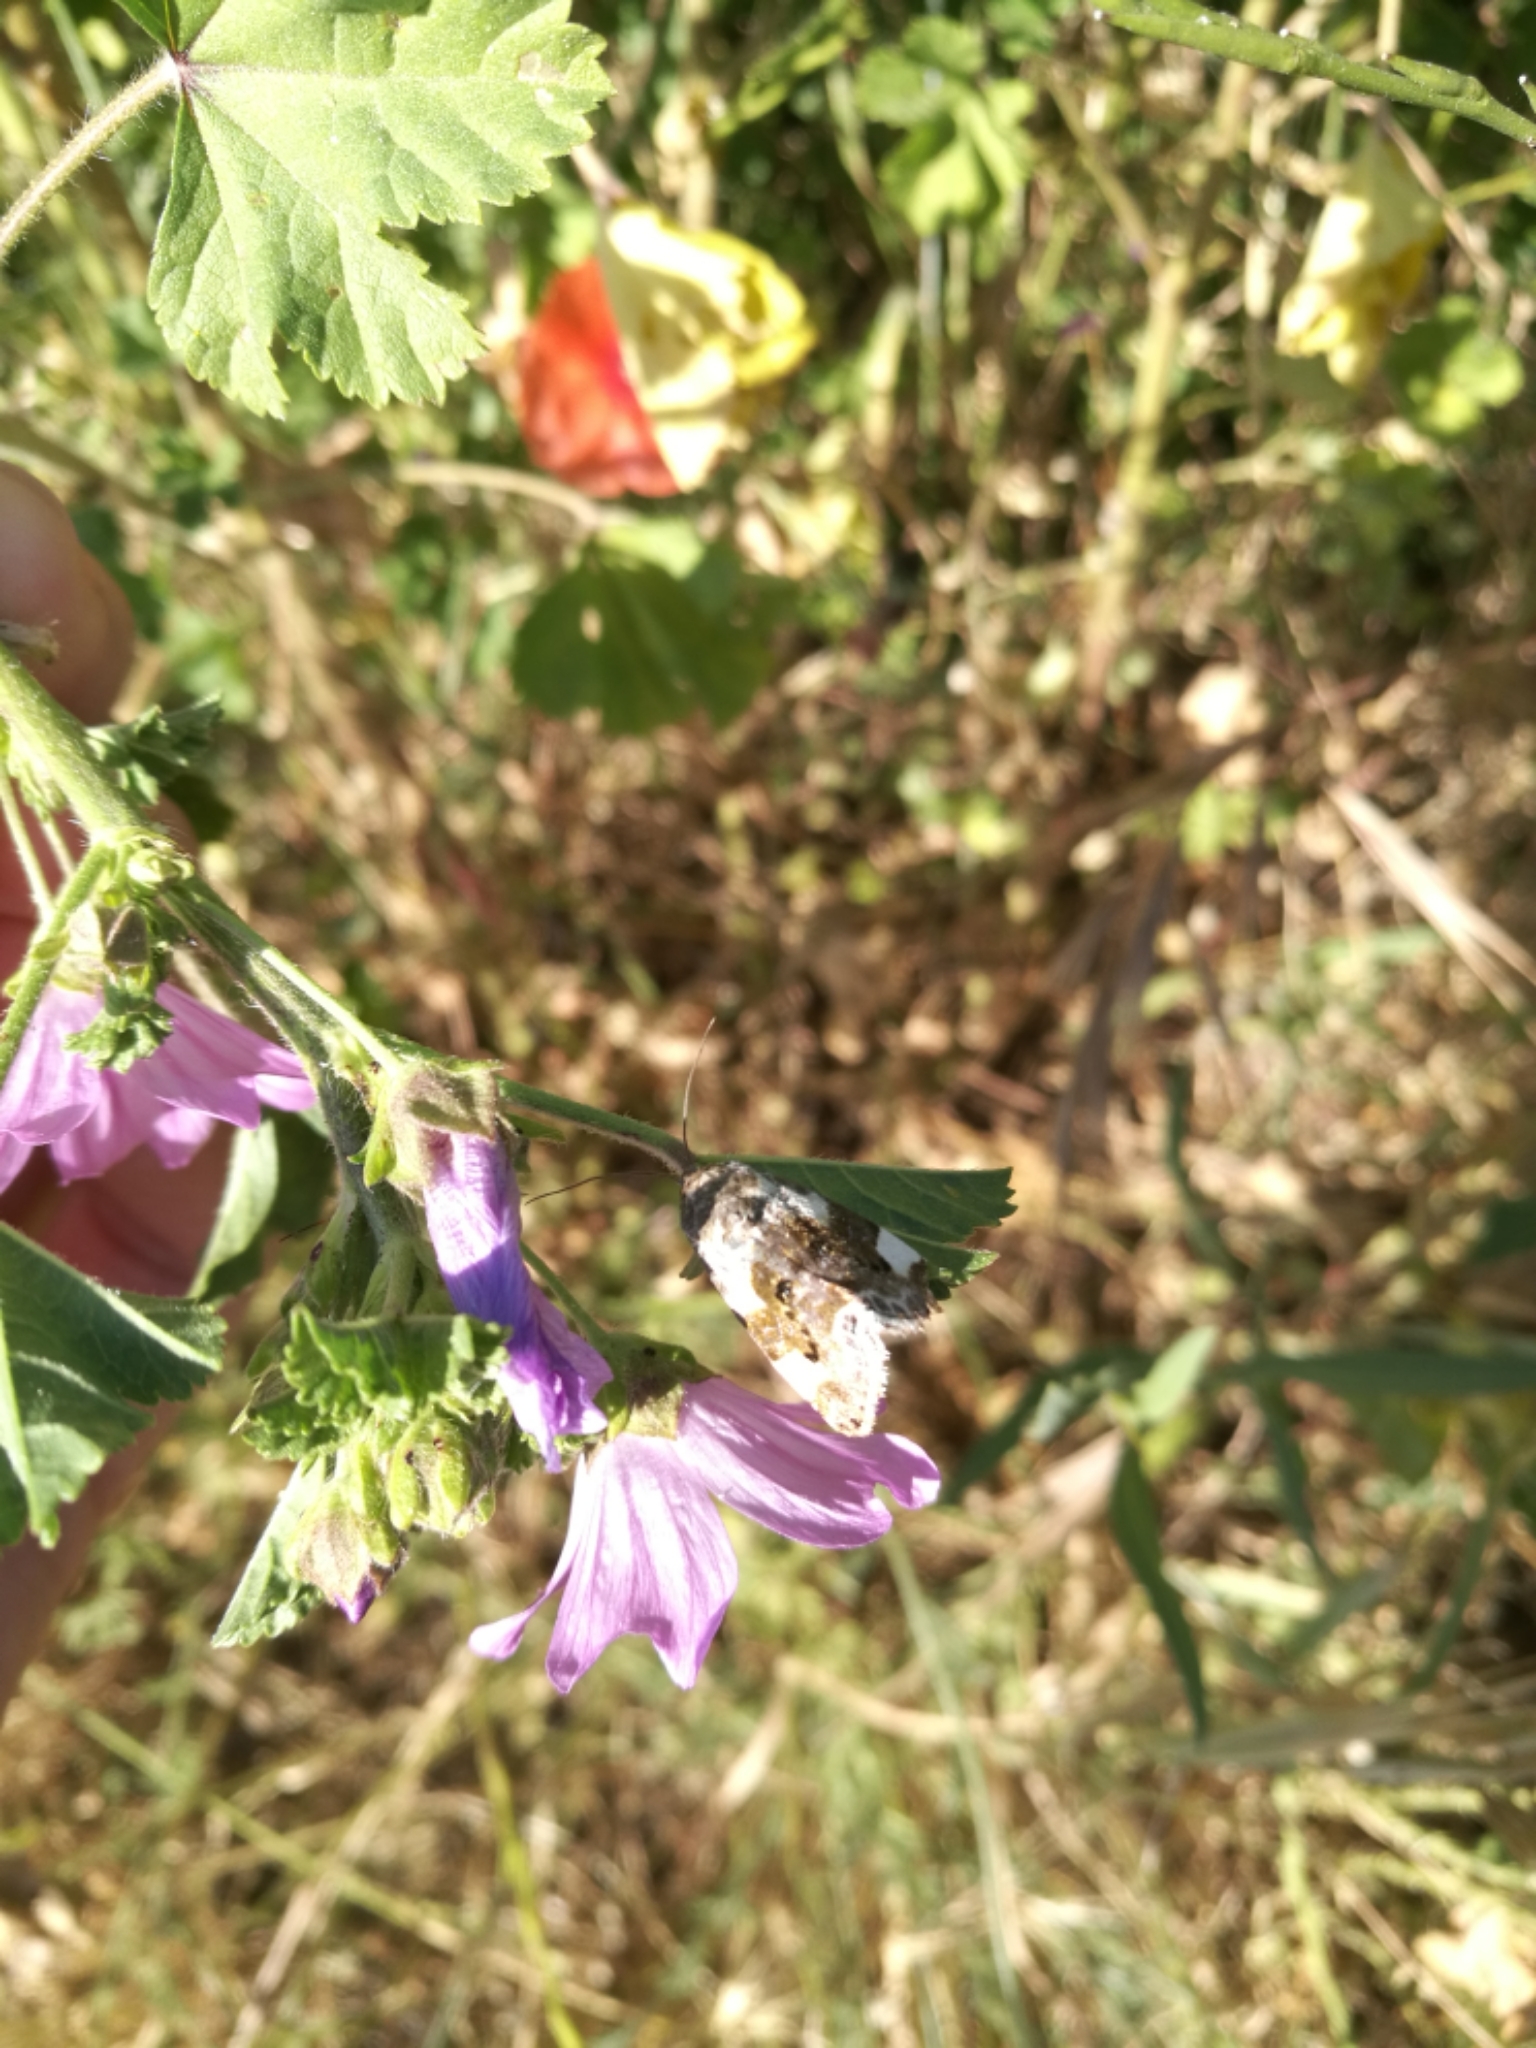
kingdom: Animalia
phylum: Arthropoda
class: Insecta
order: Lepidoptera
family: Noctuidae
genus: Acontia
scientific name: Acontia lucida
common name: Pale shoulder
